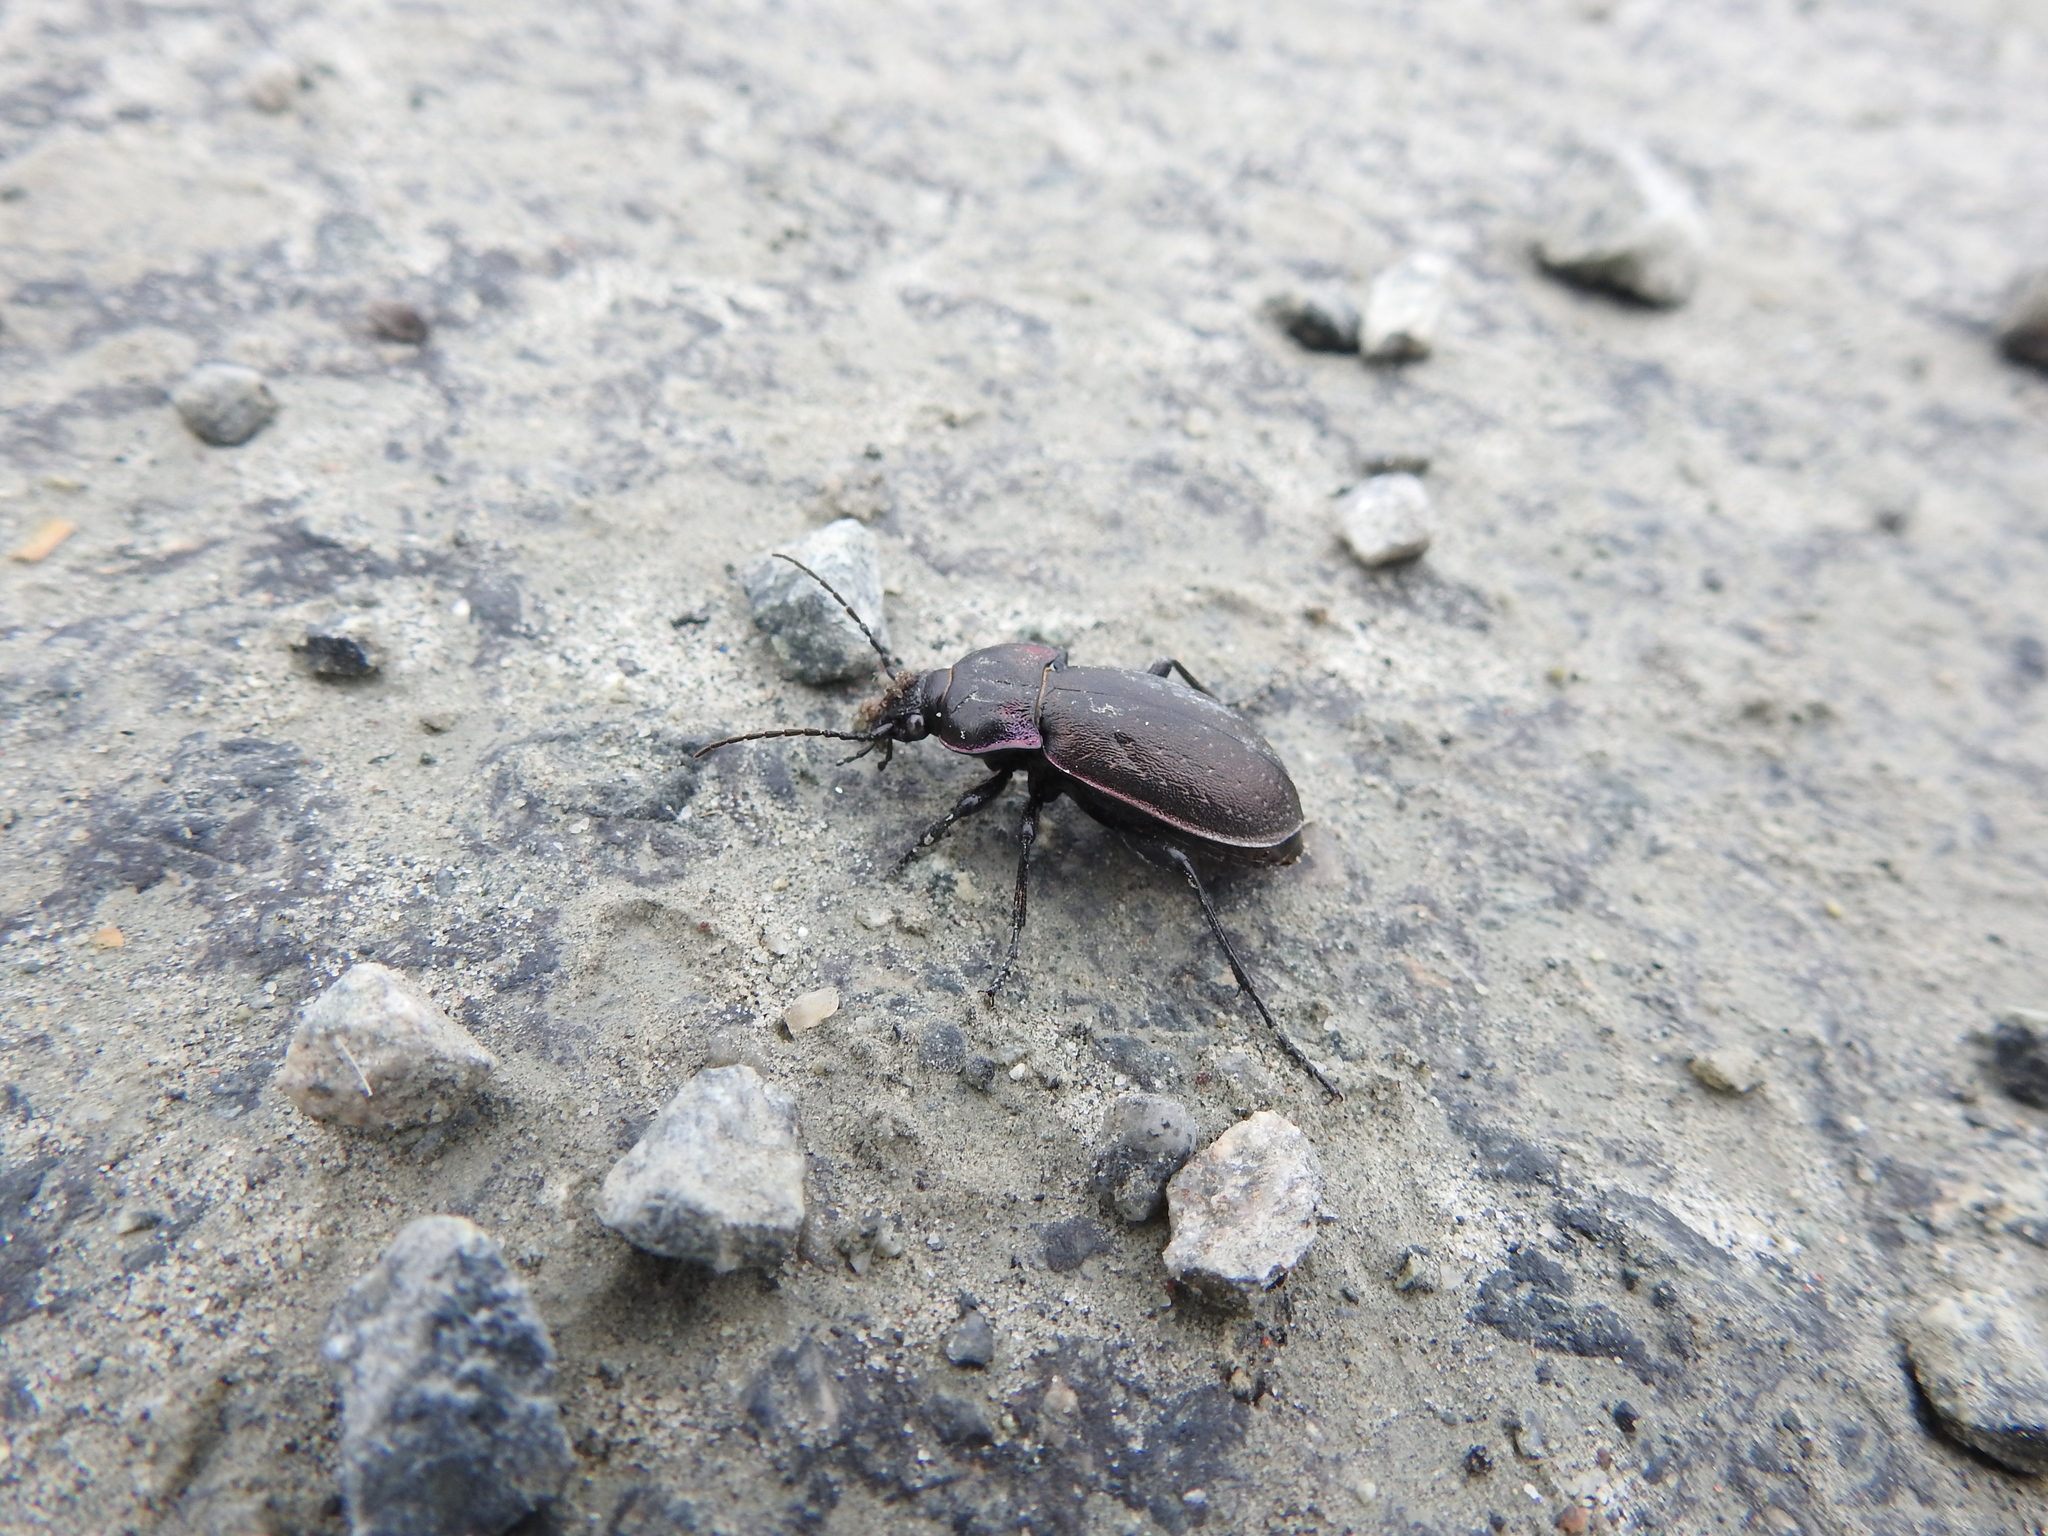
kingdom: Animalia
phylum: Arthropoda
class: Insecta
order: Coleoptera
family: Carabidae
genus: Carabus
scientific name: Carabus nemoralis
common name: European ground beetle
